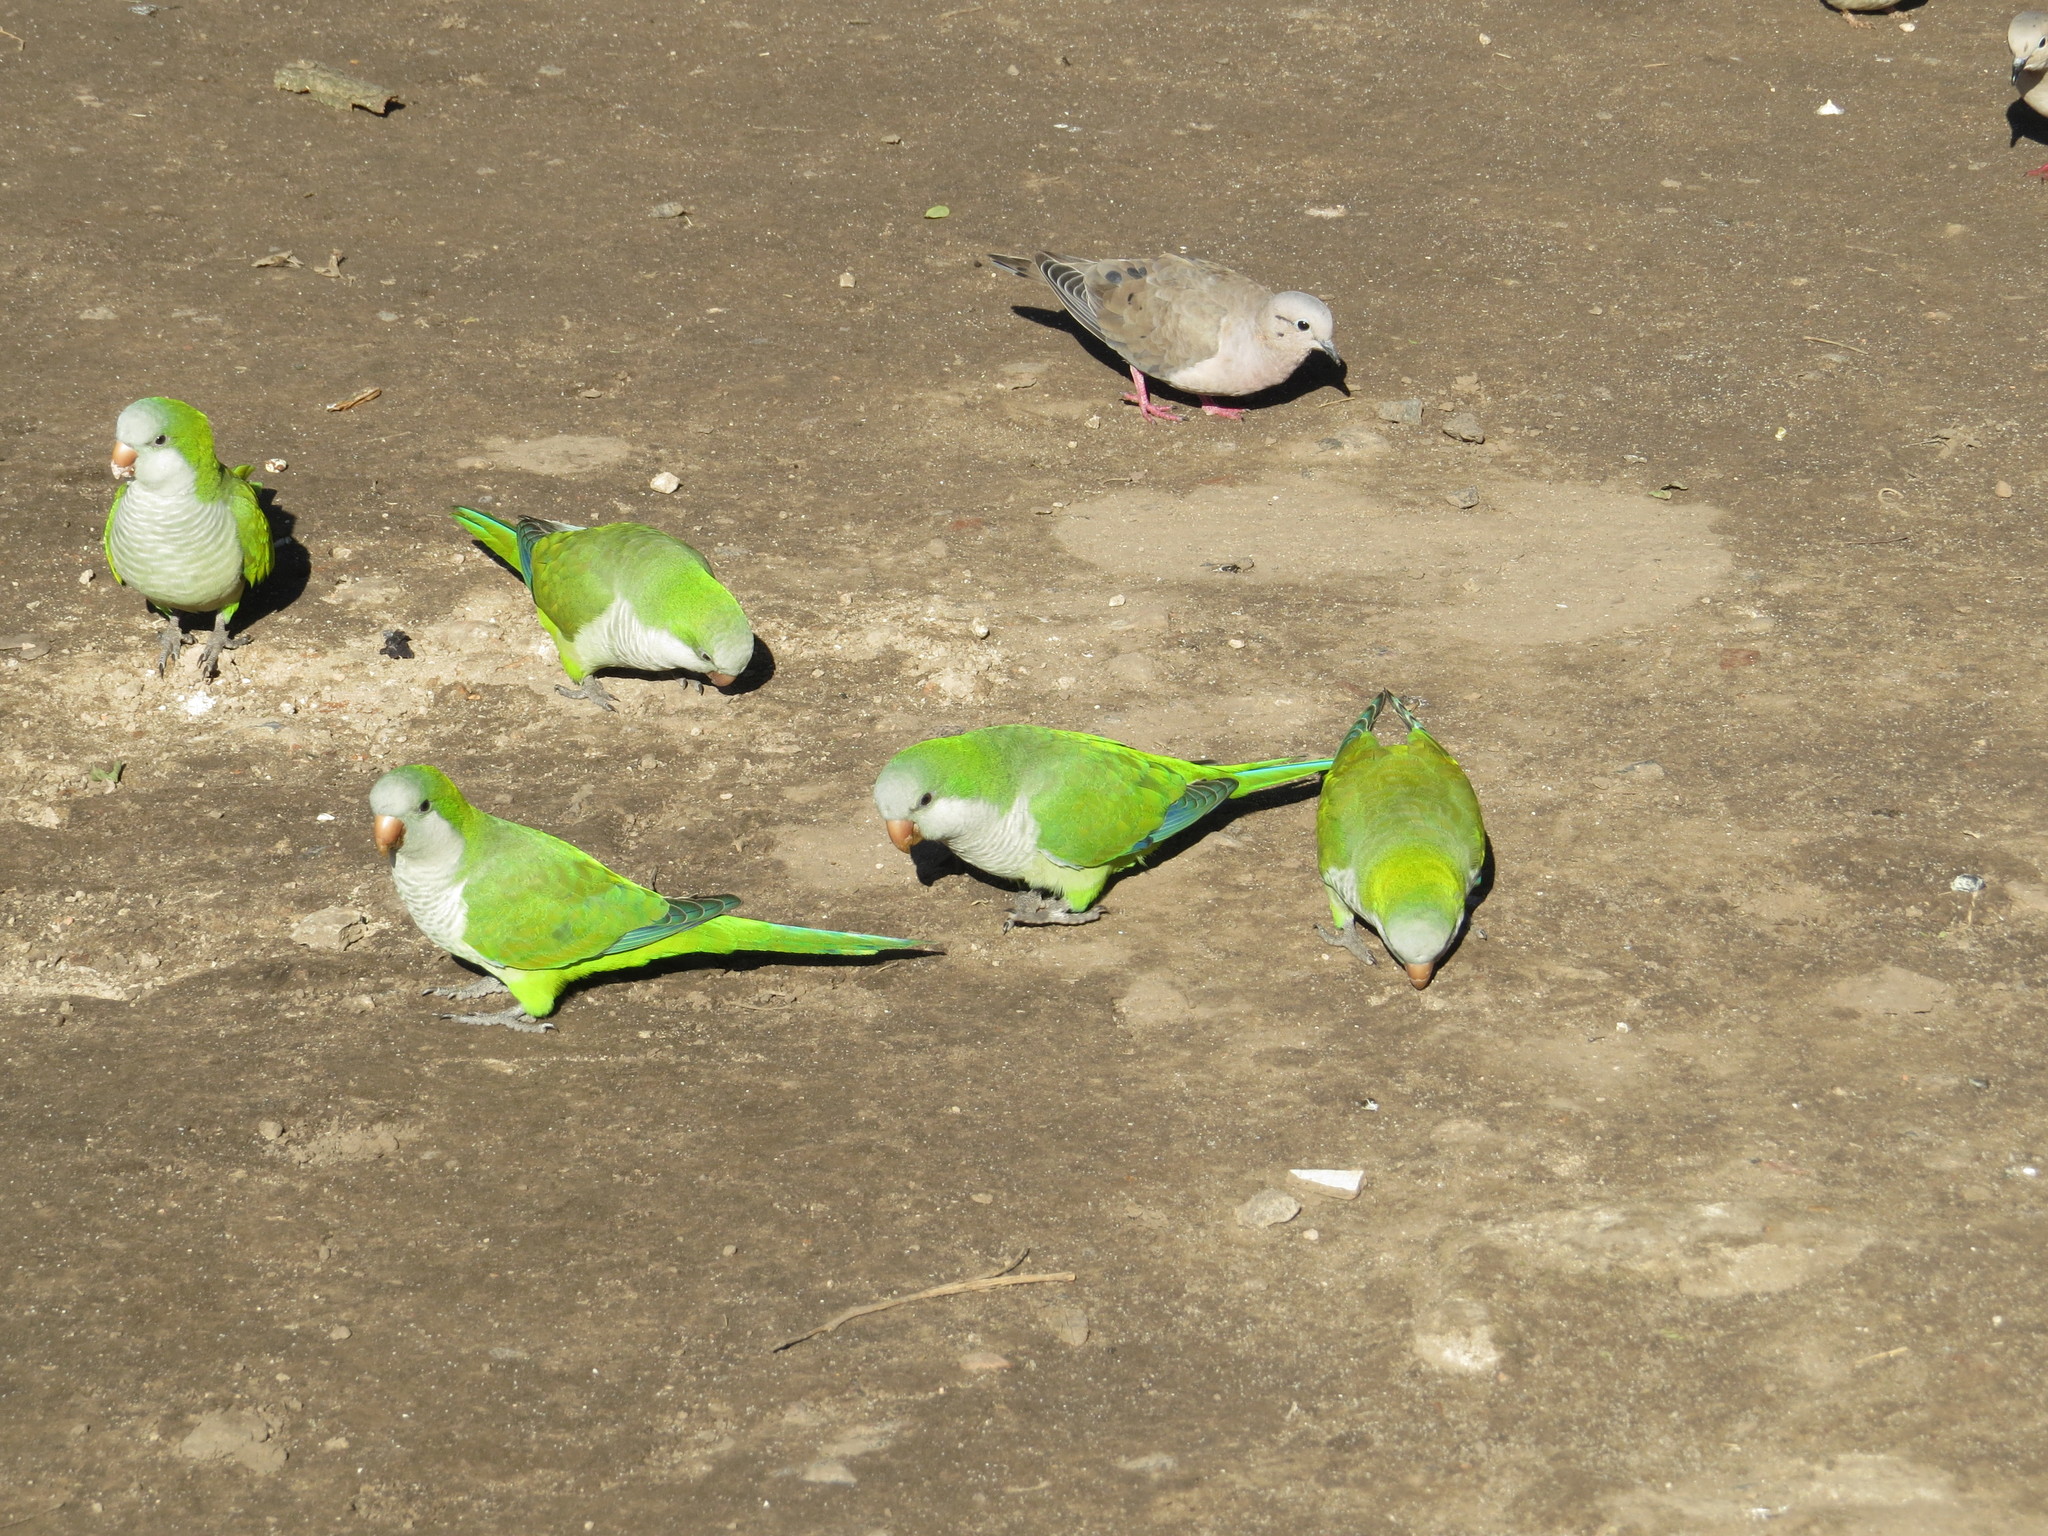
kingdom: Animalia
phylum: Chordata
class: Aves
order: Psittaciformes
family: Psittacidae
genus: Myiopsitta
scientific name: Myiopsitta monachus
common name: Monk parakeet
